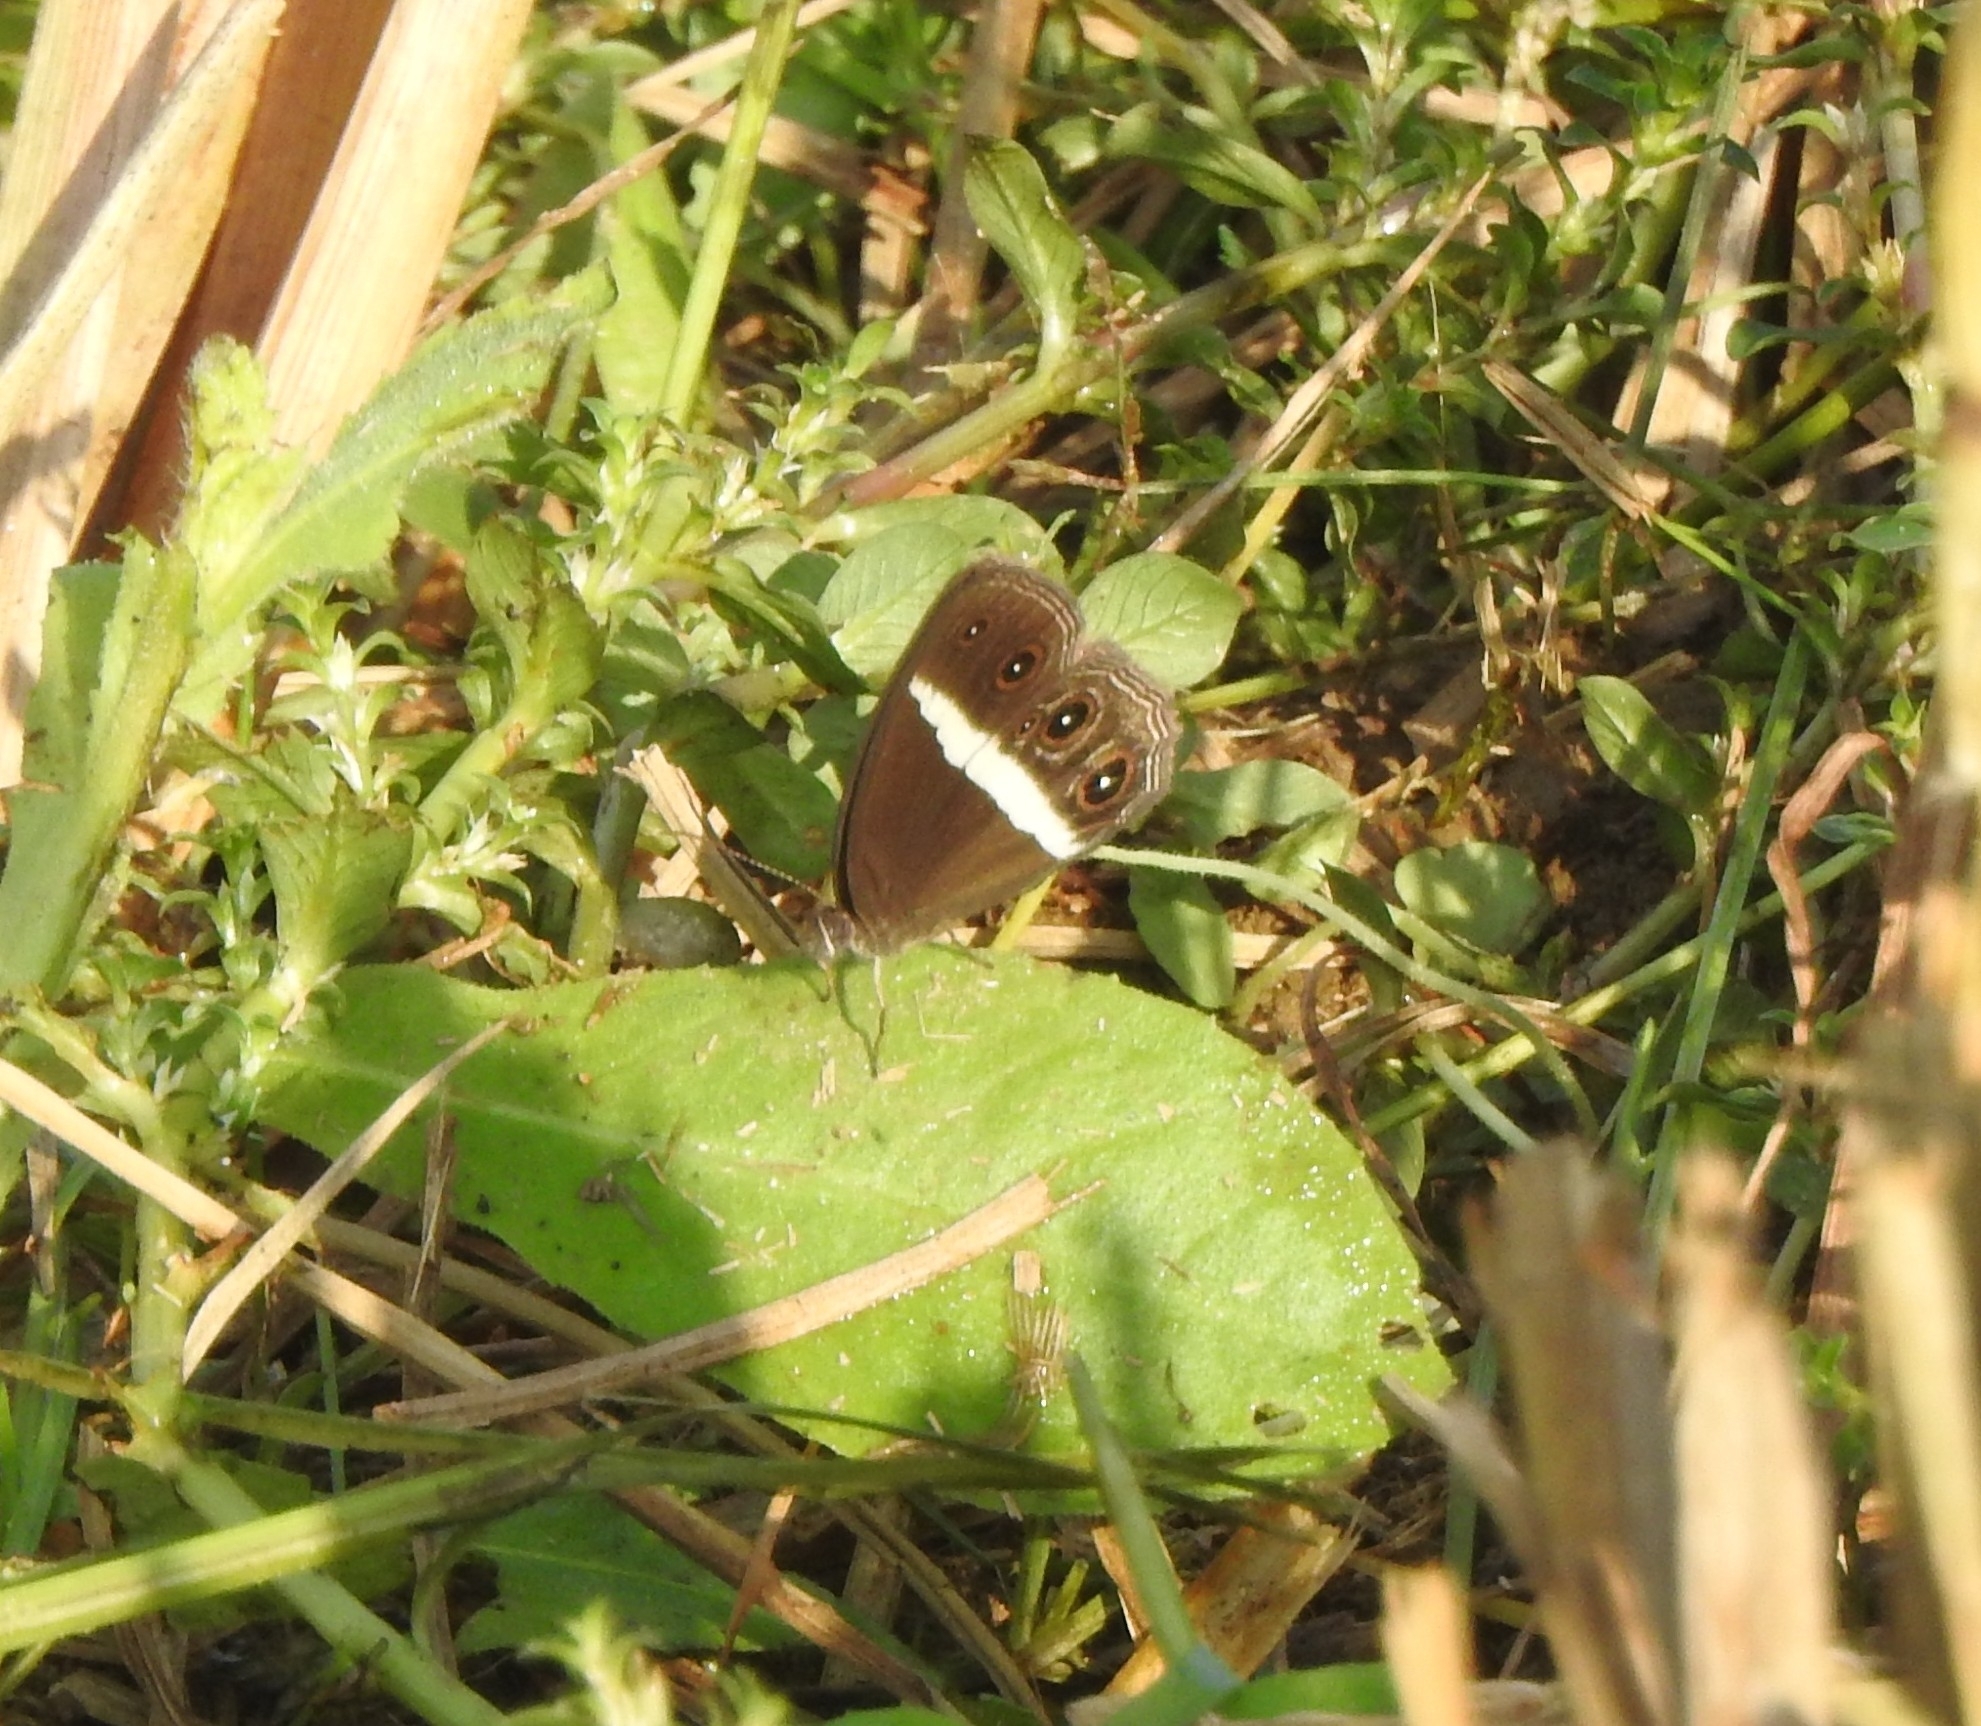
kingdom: Animalia
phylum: Arthropoda
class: Insecta
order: Lepidoptera
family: Nymphalidae
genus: Orsotriaena
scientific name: Orsotriaena medus
